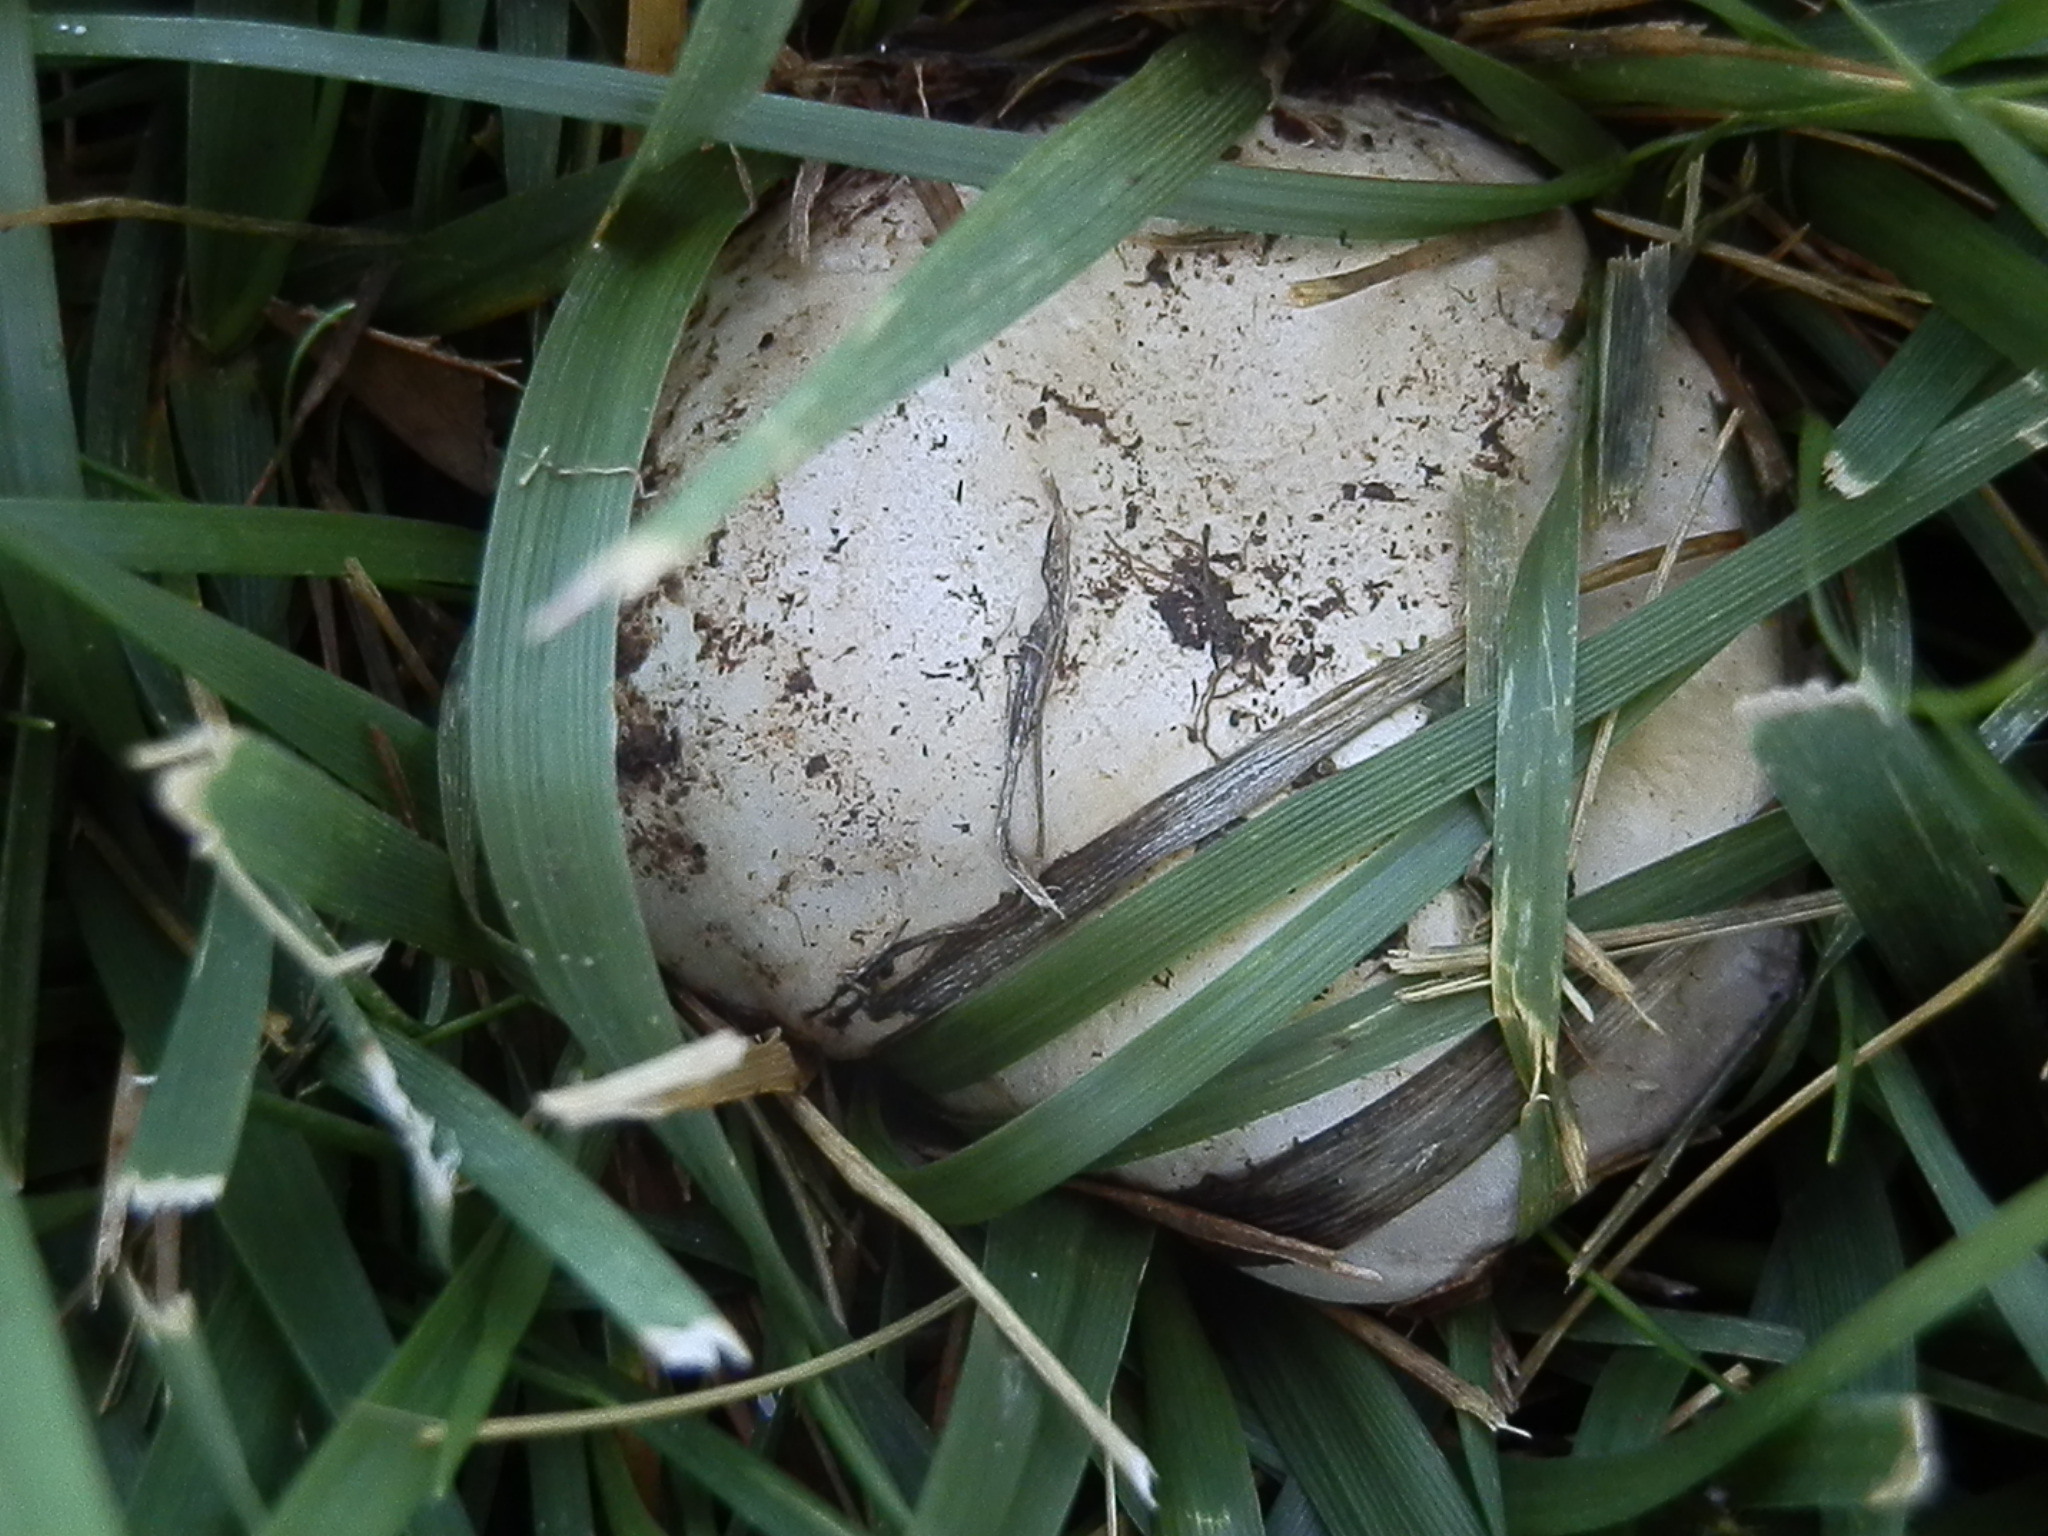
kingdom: Fungi
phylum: Basidiomycota
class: Agaricomycetes
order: Agaricales
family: Agaricaceae
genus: Agaricus
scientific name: Agaricus bitorquis
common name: Pavement mushroom
